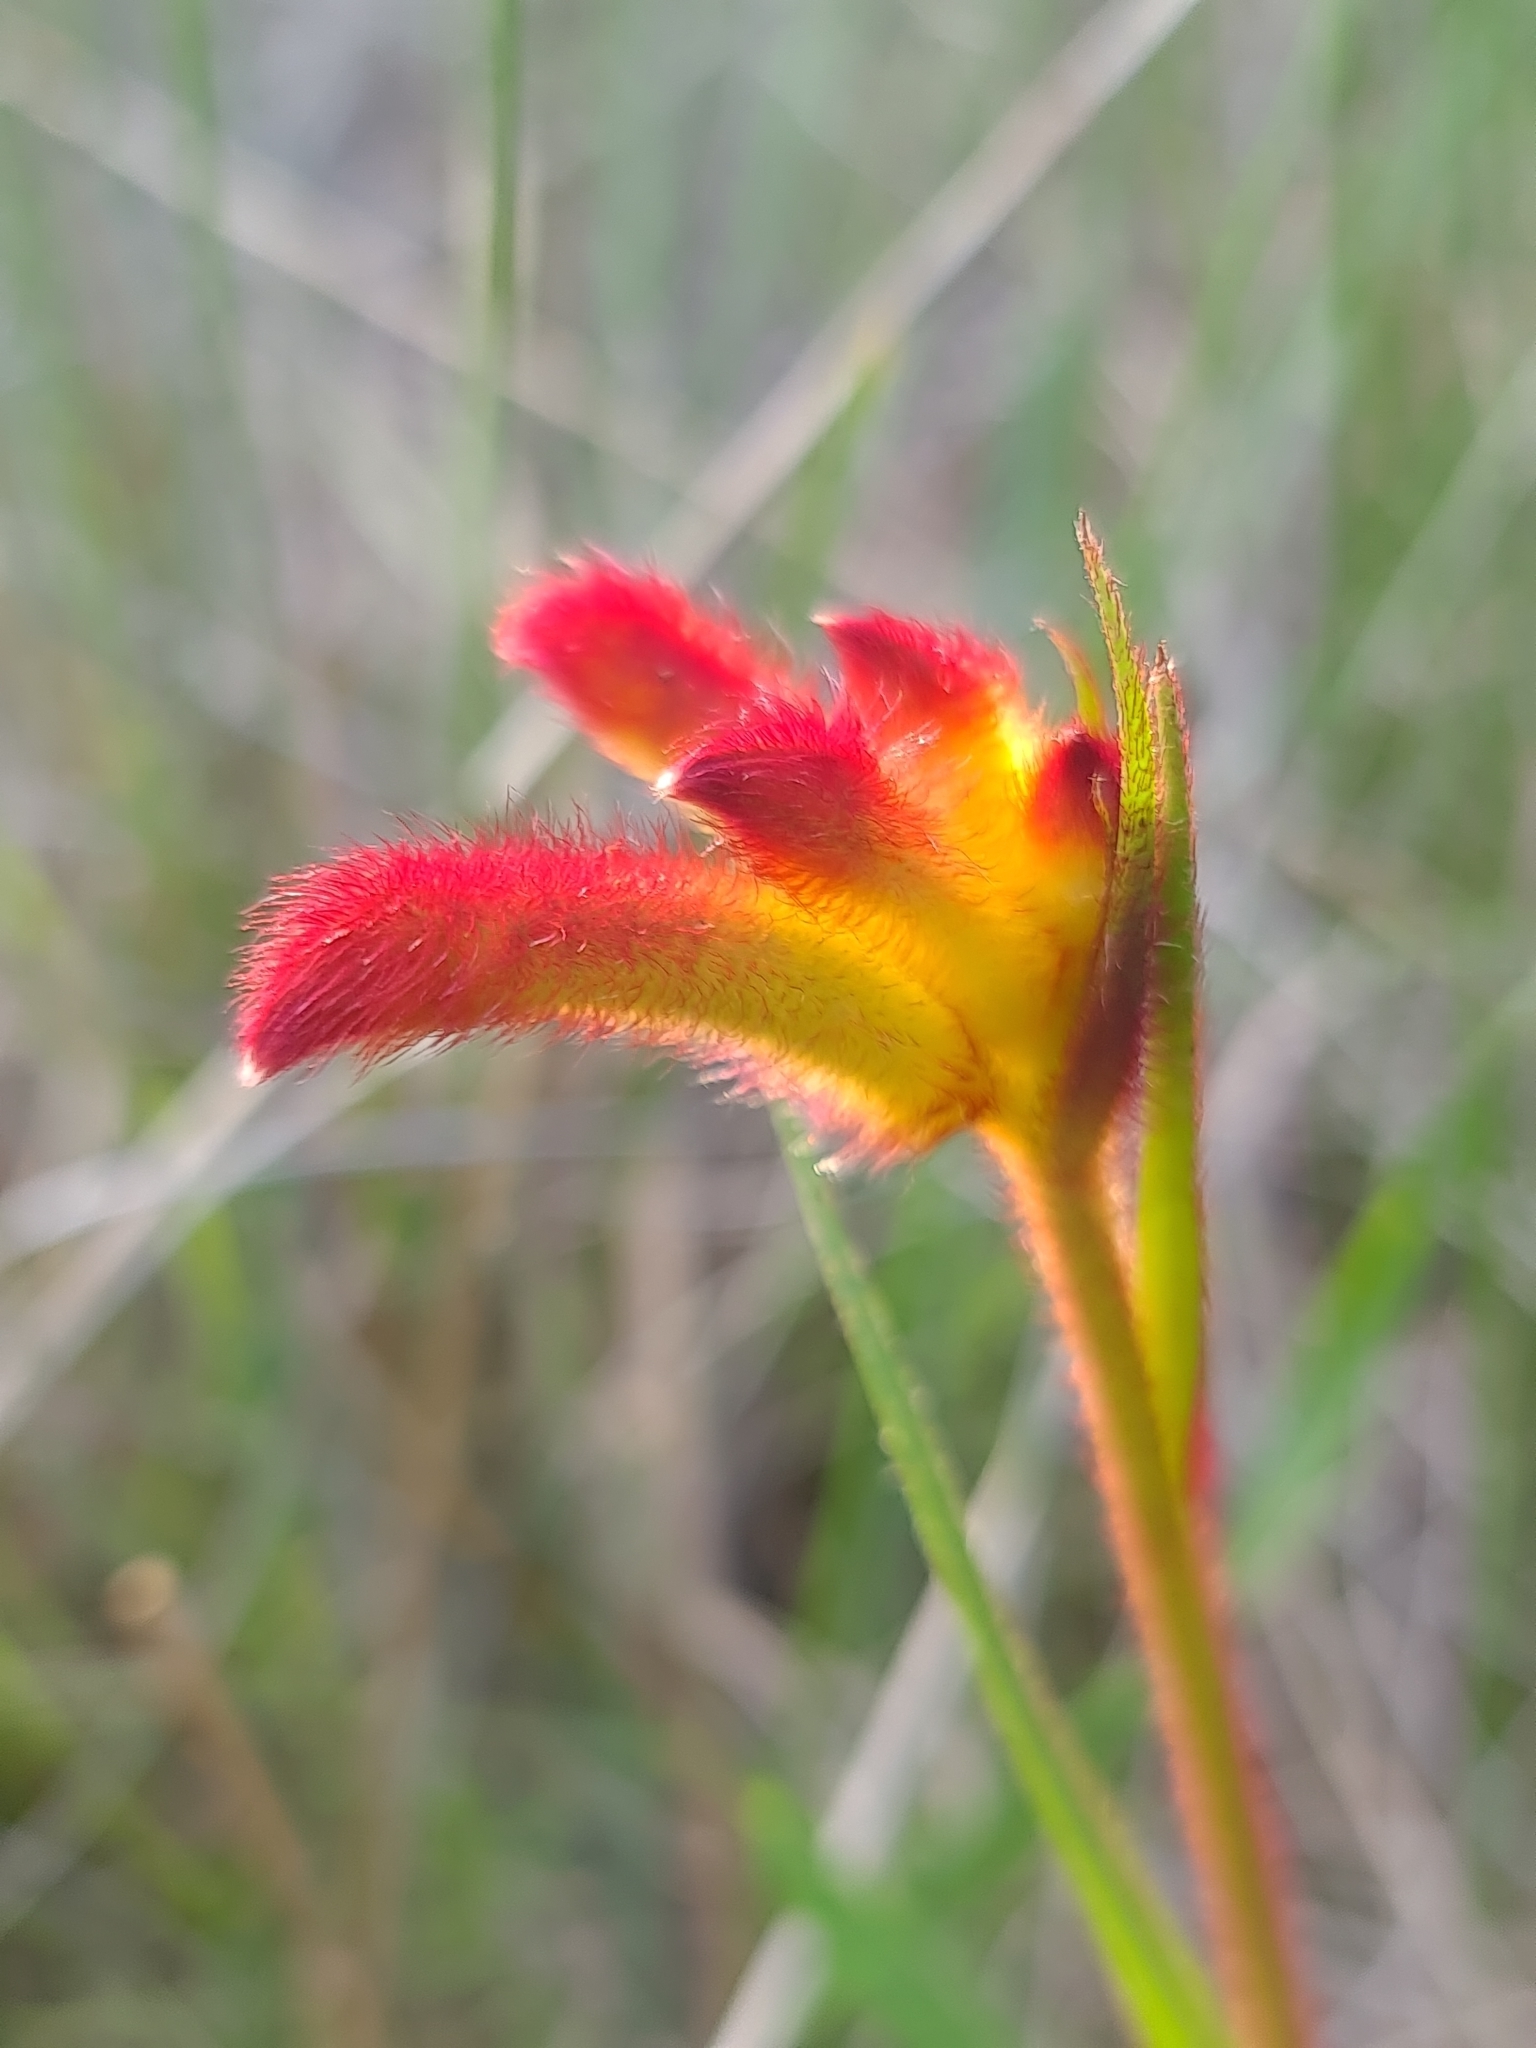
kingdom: Plantae
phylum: Tracheophyta
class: Liliopsida
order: Commelinales
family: Haemodoraceae
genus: Anigozanthos
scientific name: Anigozanthos humilis
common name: Cat's-paw
